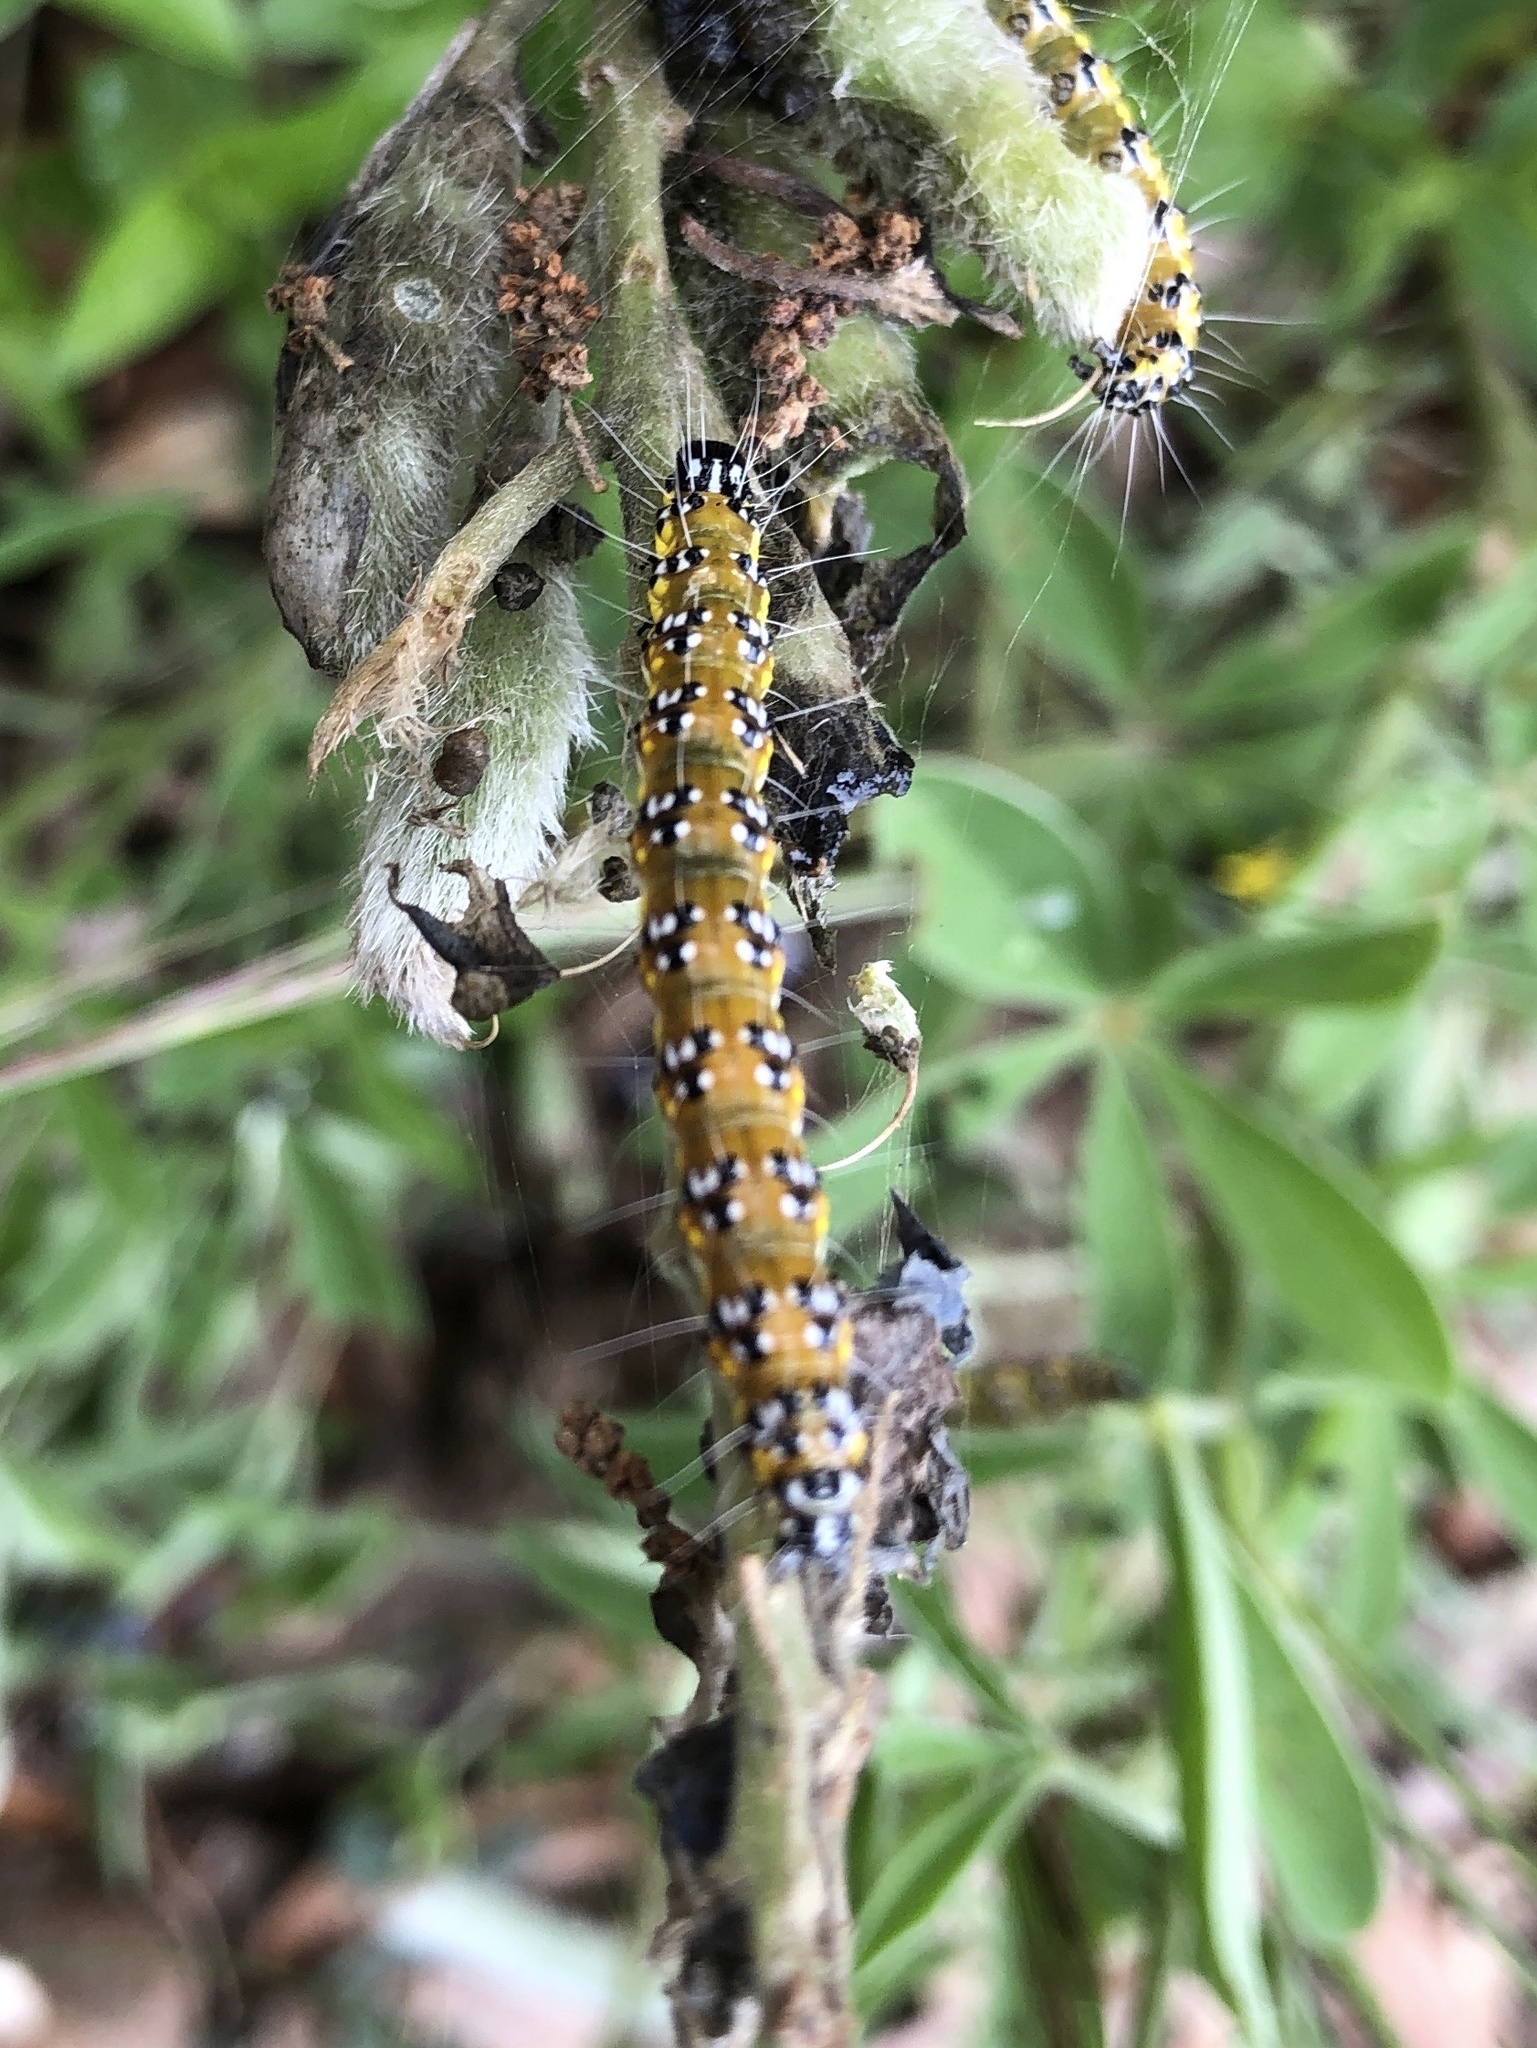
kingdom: Animalia
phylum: Arthropoda
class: Insecta
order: Lepidoptera
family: Crambidae
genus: Uresiphita
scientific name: Uresiphita reversalis
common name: Genista broom moth
